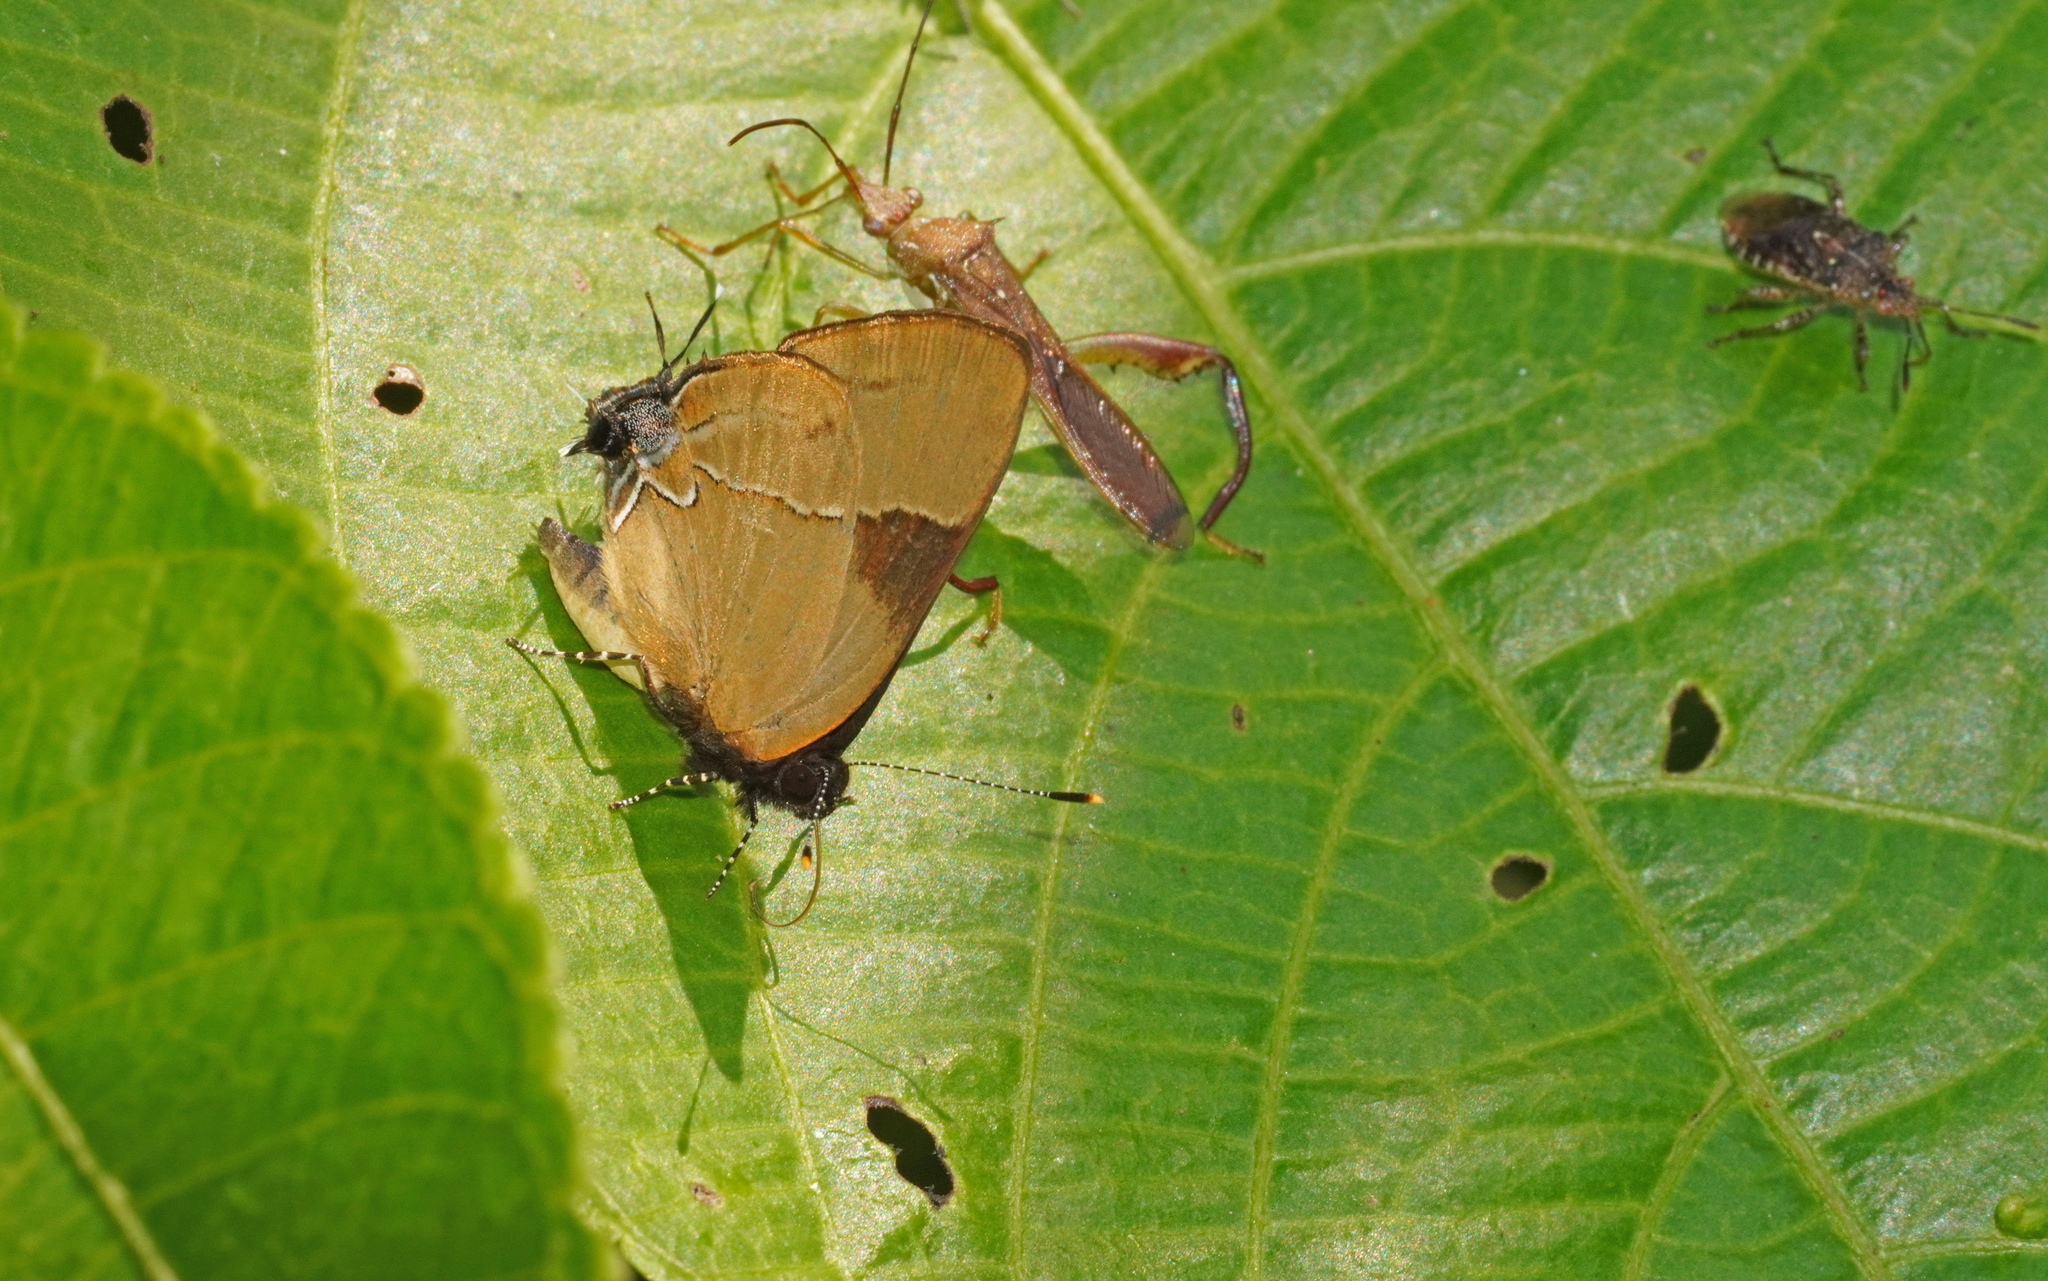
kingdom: Animalia
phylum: Arthropoda
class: Insecta
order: Lepidoptera
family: Lycaenidae
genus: Calycopis
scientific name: Calycopis calus
